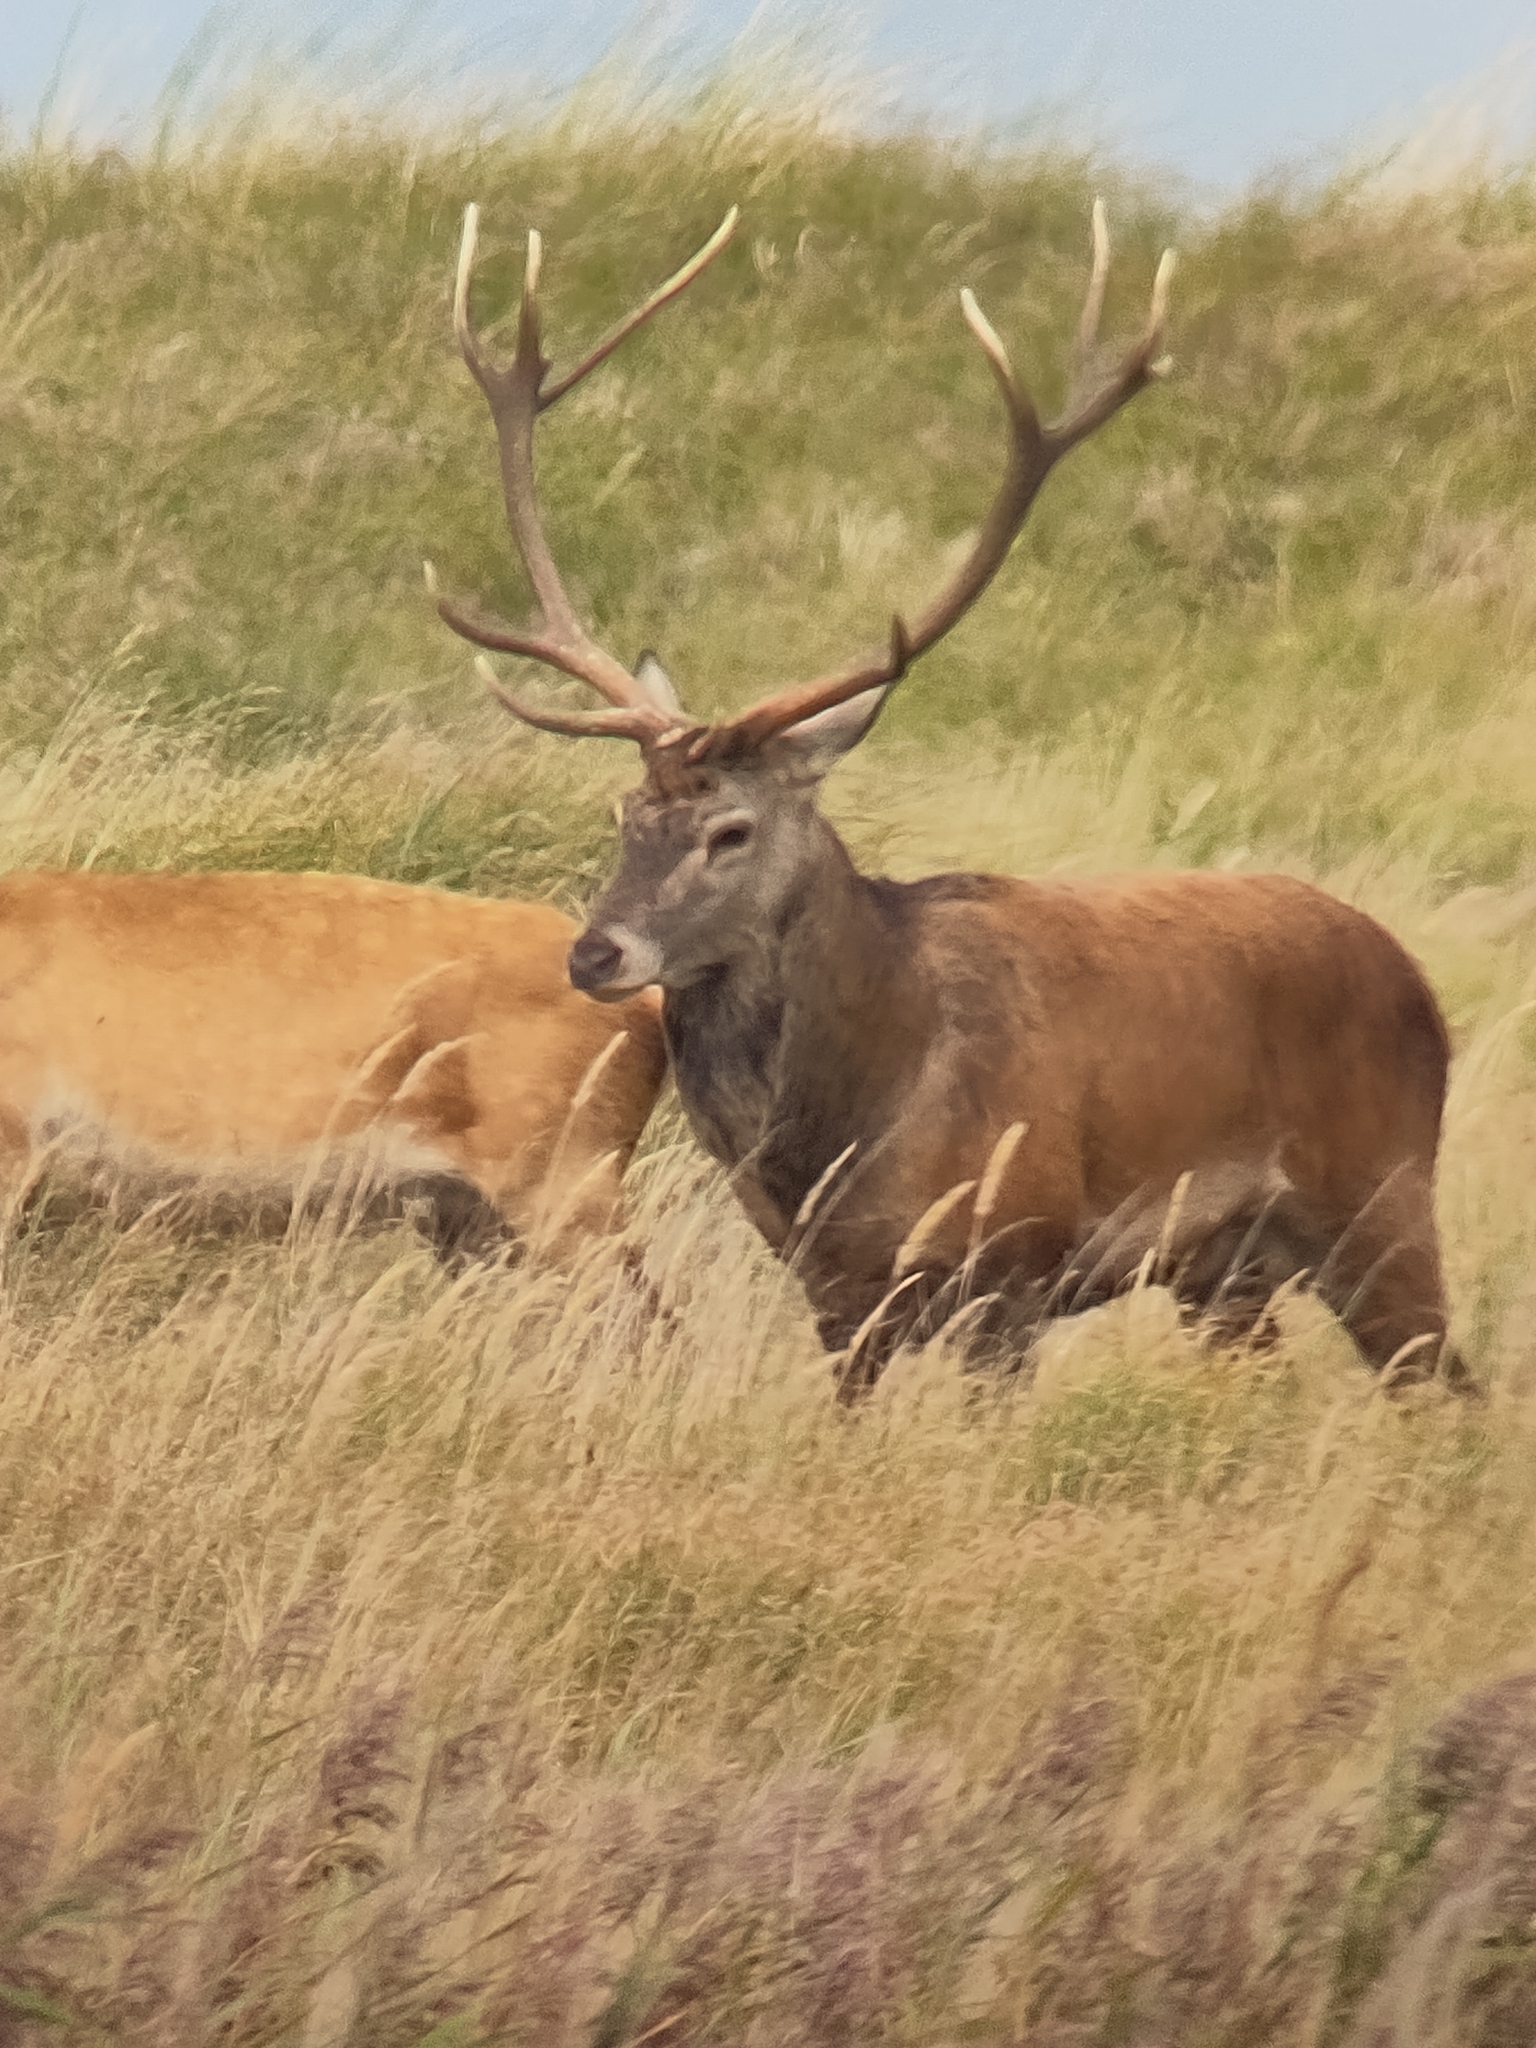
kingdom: Animalia
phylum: Chordata
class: Mammalia
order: Artiodactyla
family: Cervidae
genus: Cervus
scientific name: Cervus elaphus
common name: Red deer
